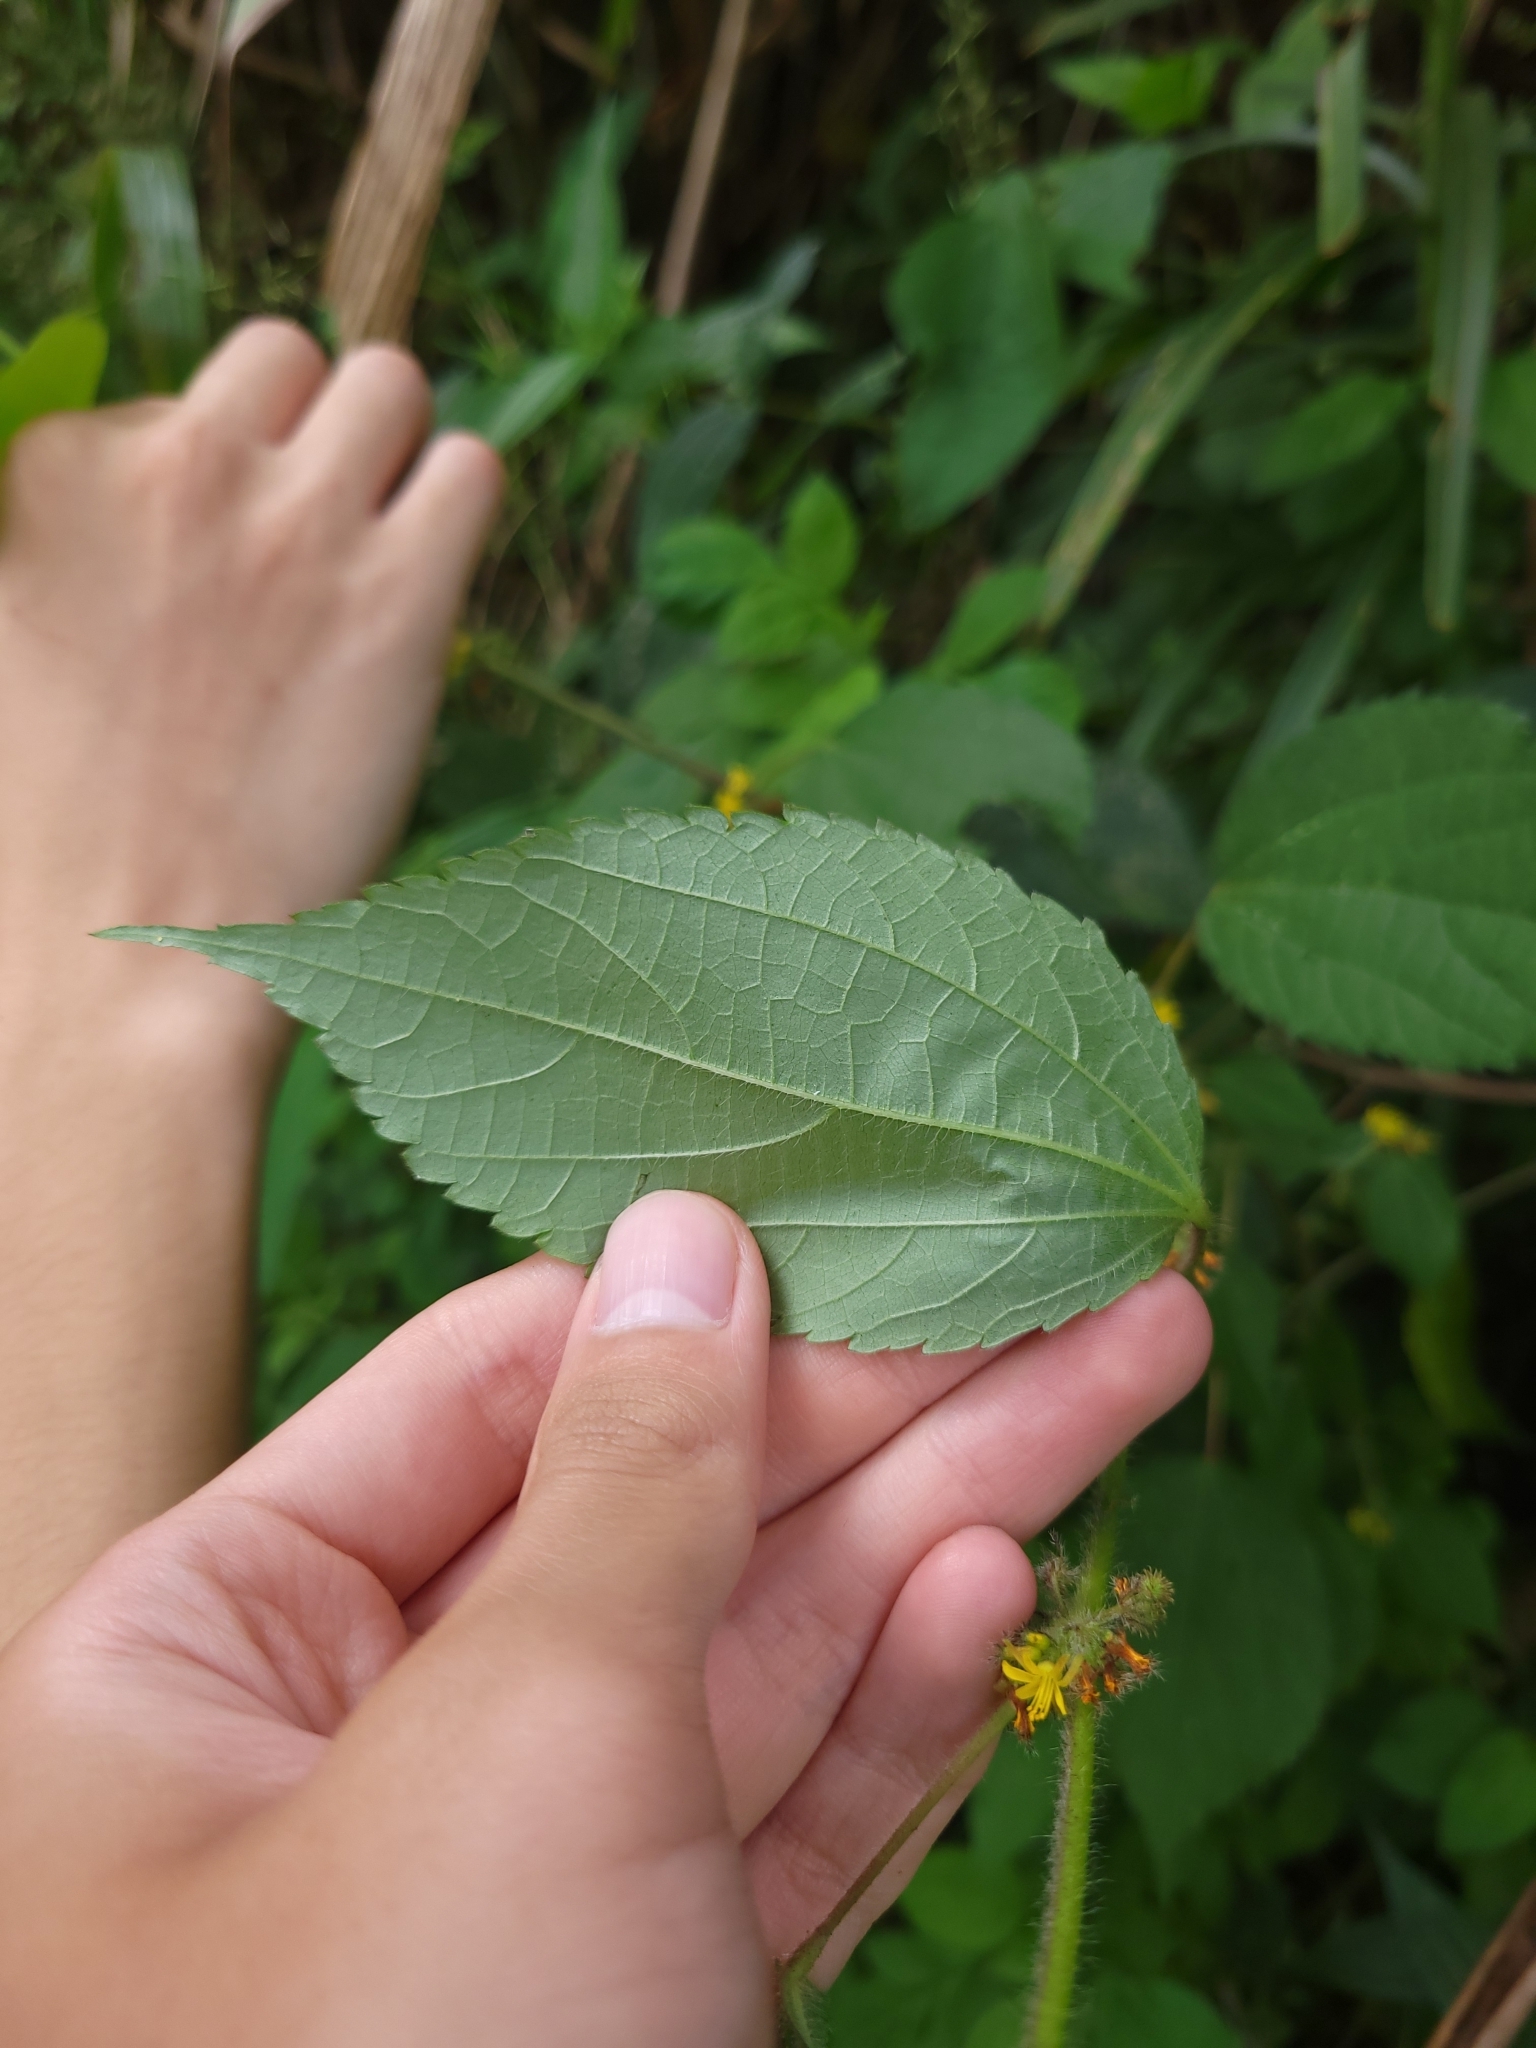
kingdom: Plantae
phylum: Tracheophyta
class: Magnoliopsida
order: Malvales
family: Malvaceae
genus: Triumfetta
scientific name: Triumfetta pilosa
